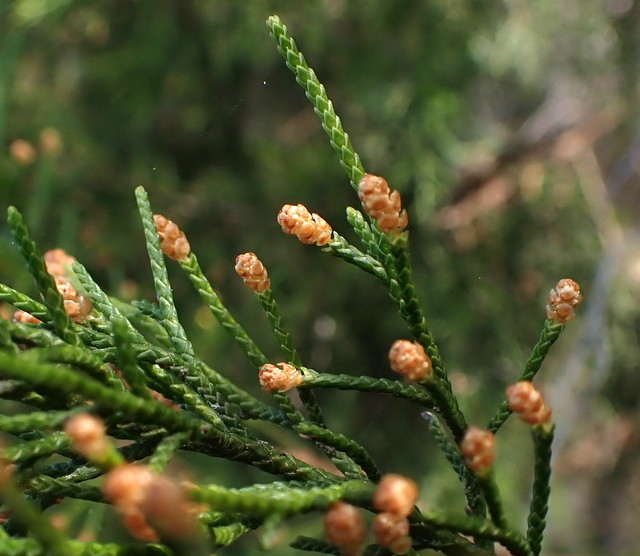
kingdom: Plantae
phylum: Tracheophyta
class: Pinopsida
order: Pinales
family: Cupressaceae
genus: Juniperus
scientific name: Juniperus virginiana
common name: Red juniper
